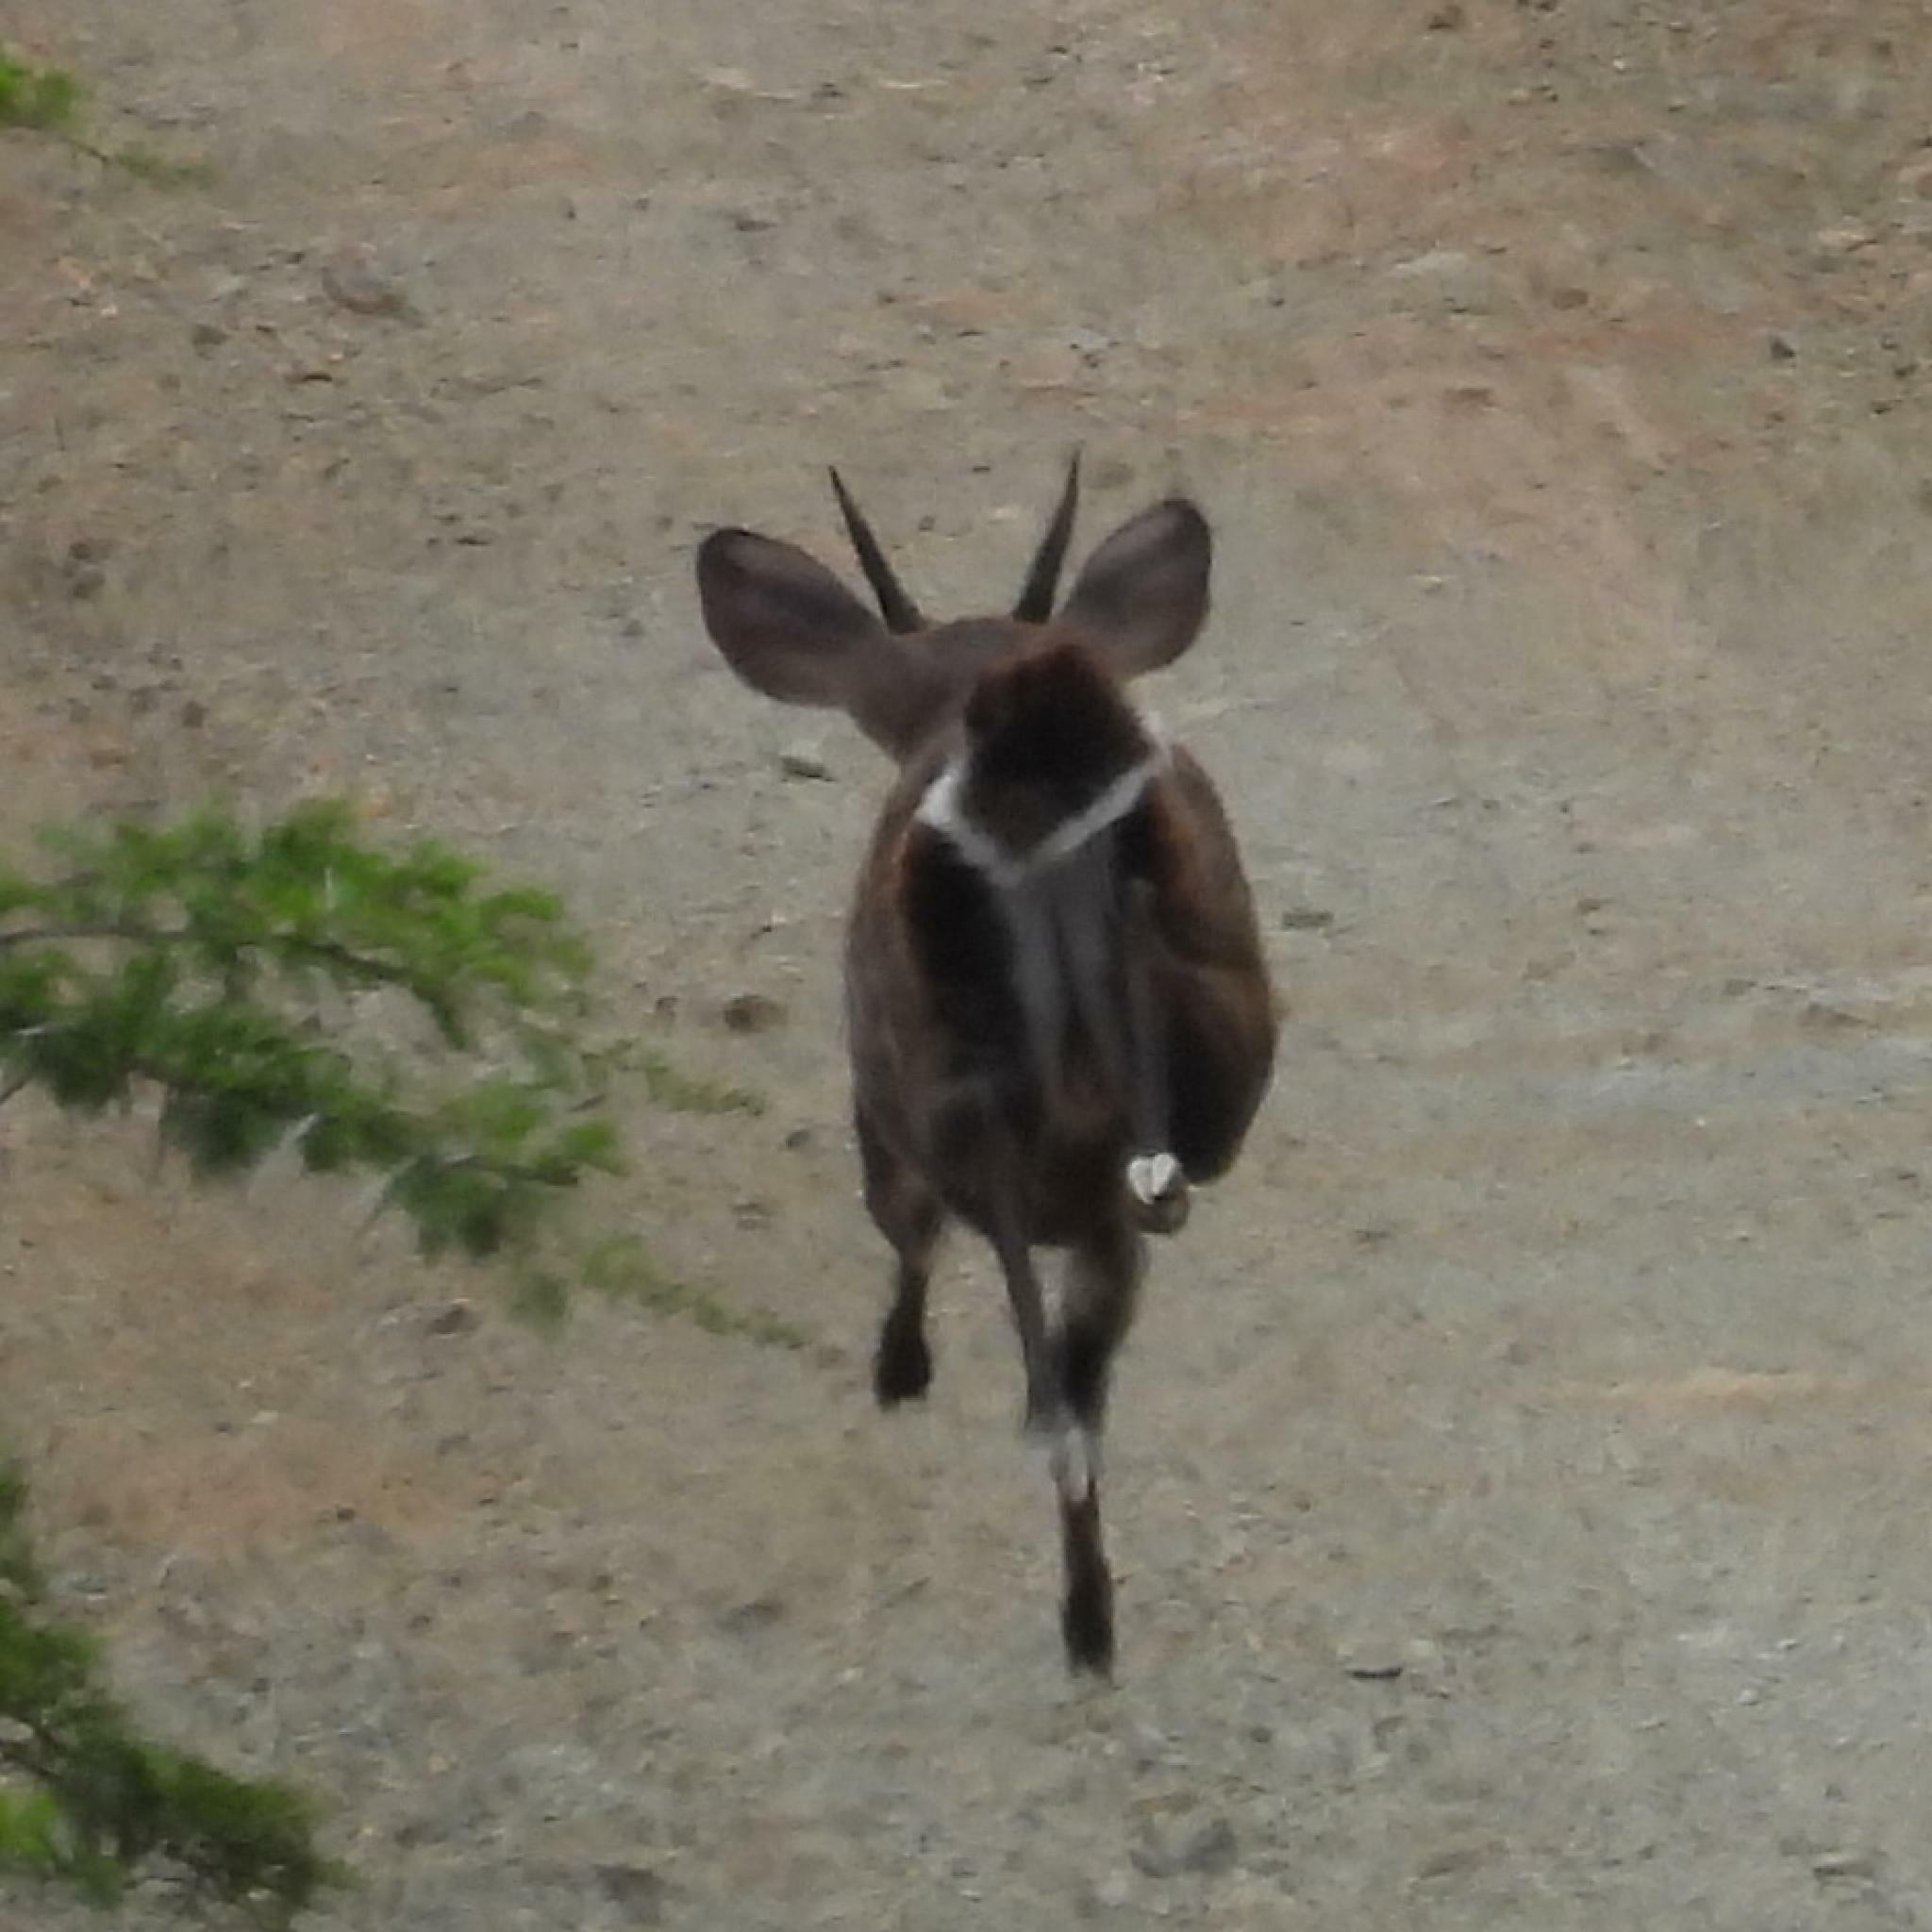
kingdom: Animalia
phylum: Chordata
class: Mammalia
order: Artiodactyla
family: Bovidae
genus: Tragelaphus
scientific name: Tragelaphus scriptus
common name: Bushbuck
